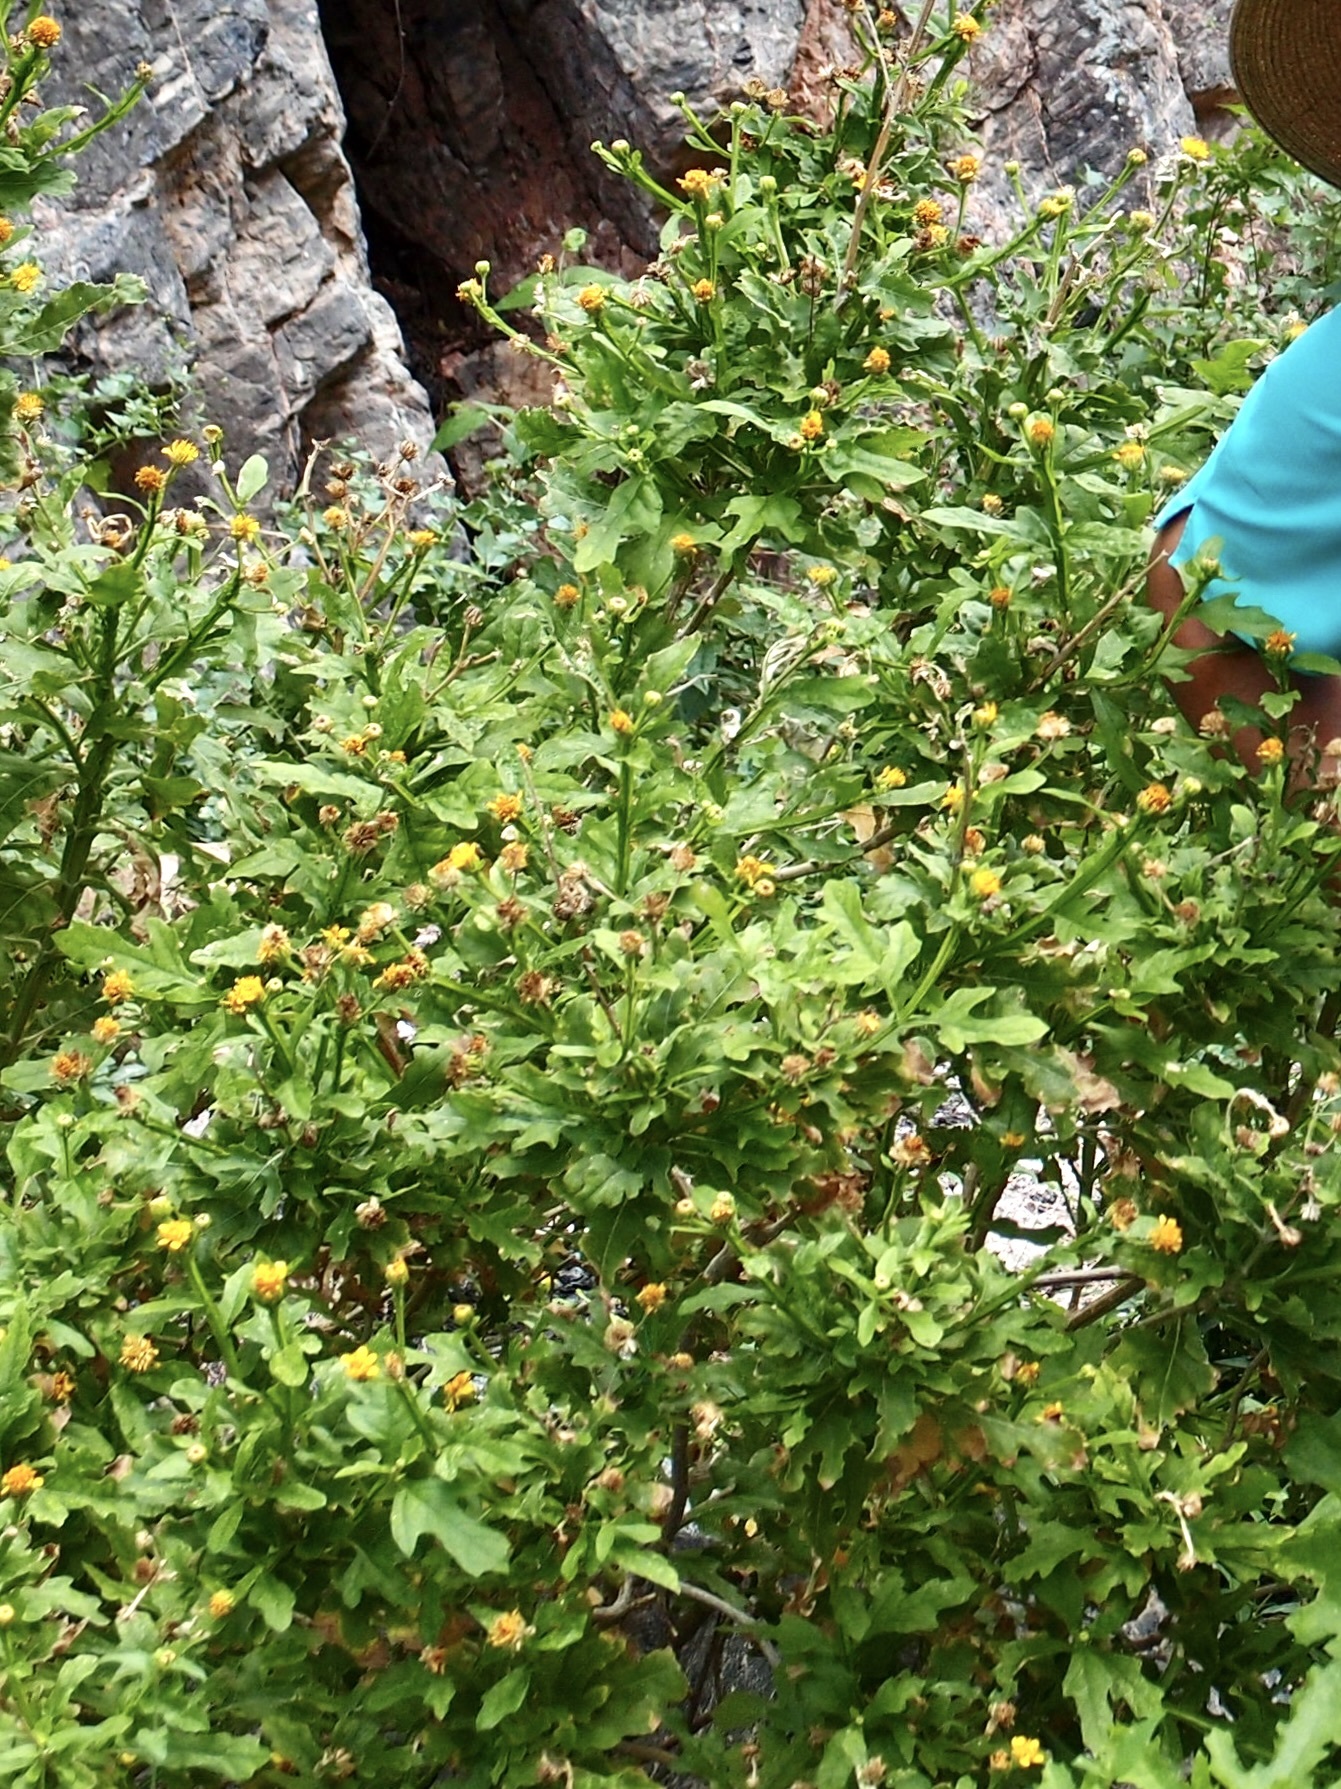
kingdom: Plantae
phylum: Tracheophyta
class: Magnoliopsida
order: Asterales
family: Asteraceae
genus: Verbesina
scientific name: Verbesina felgeri
